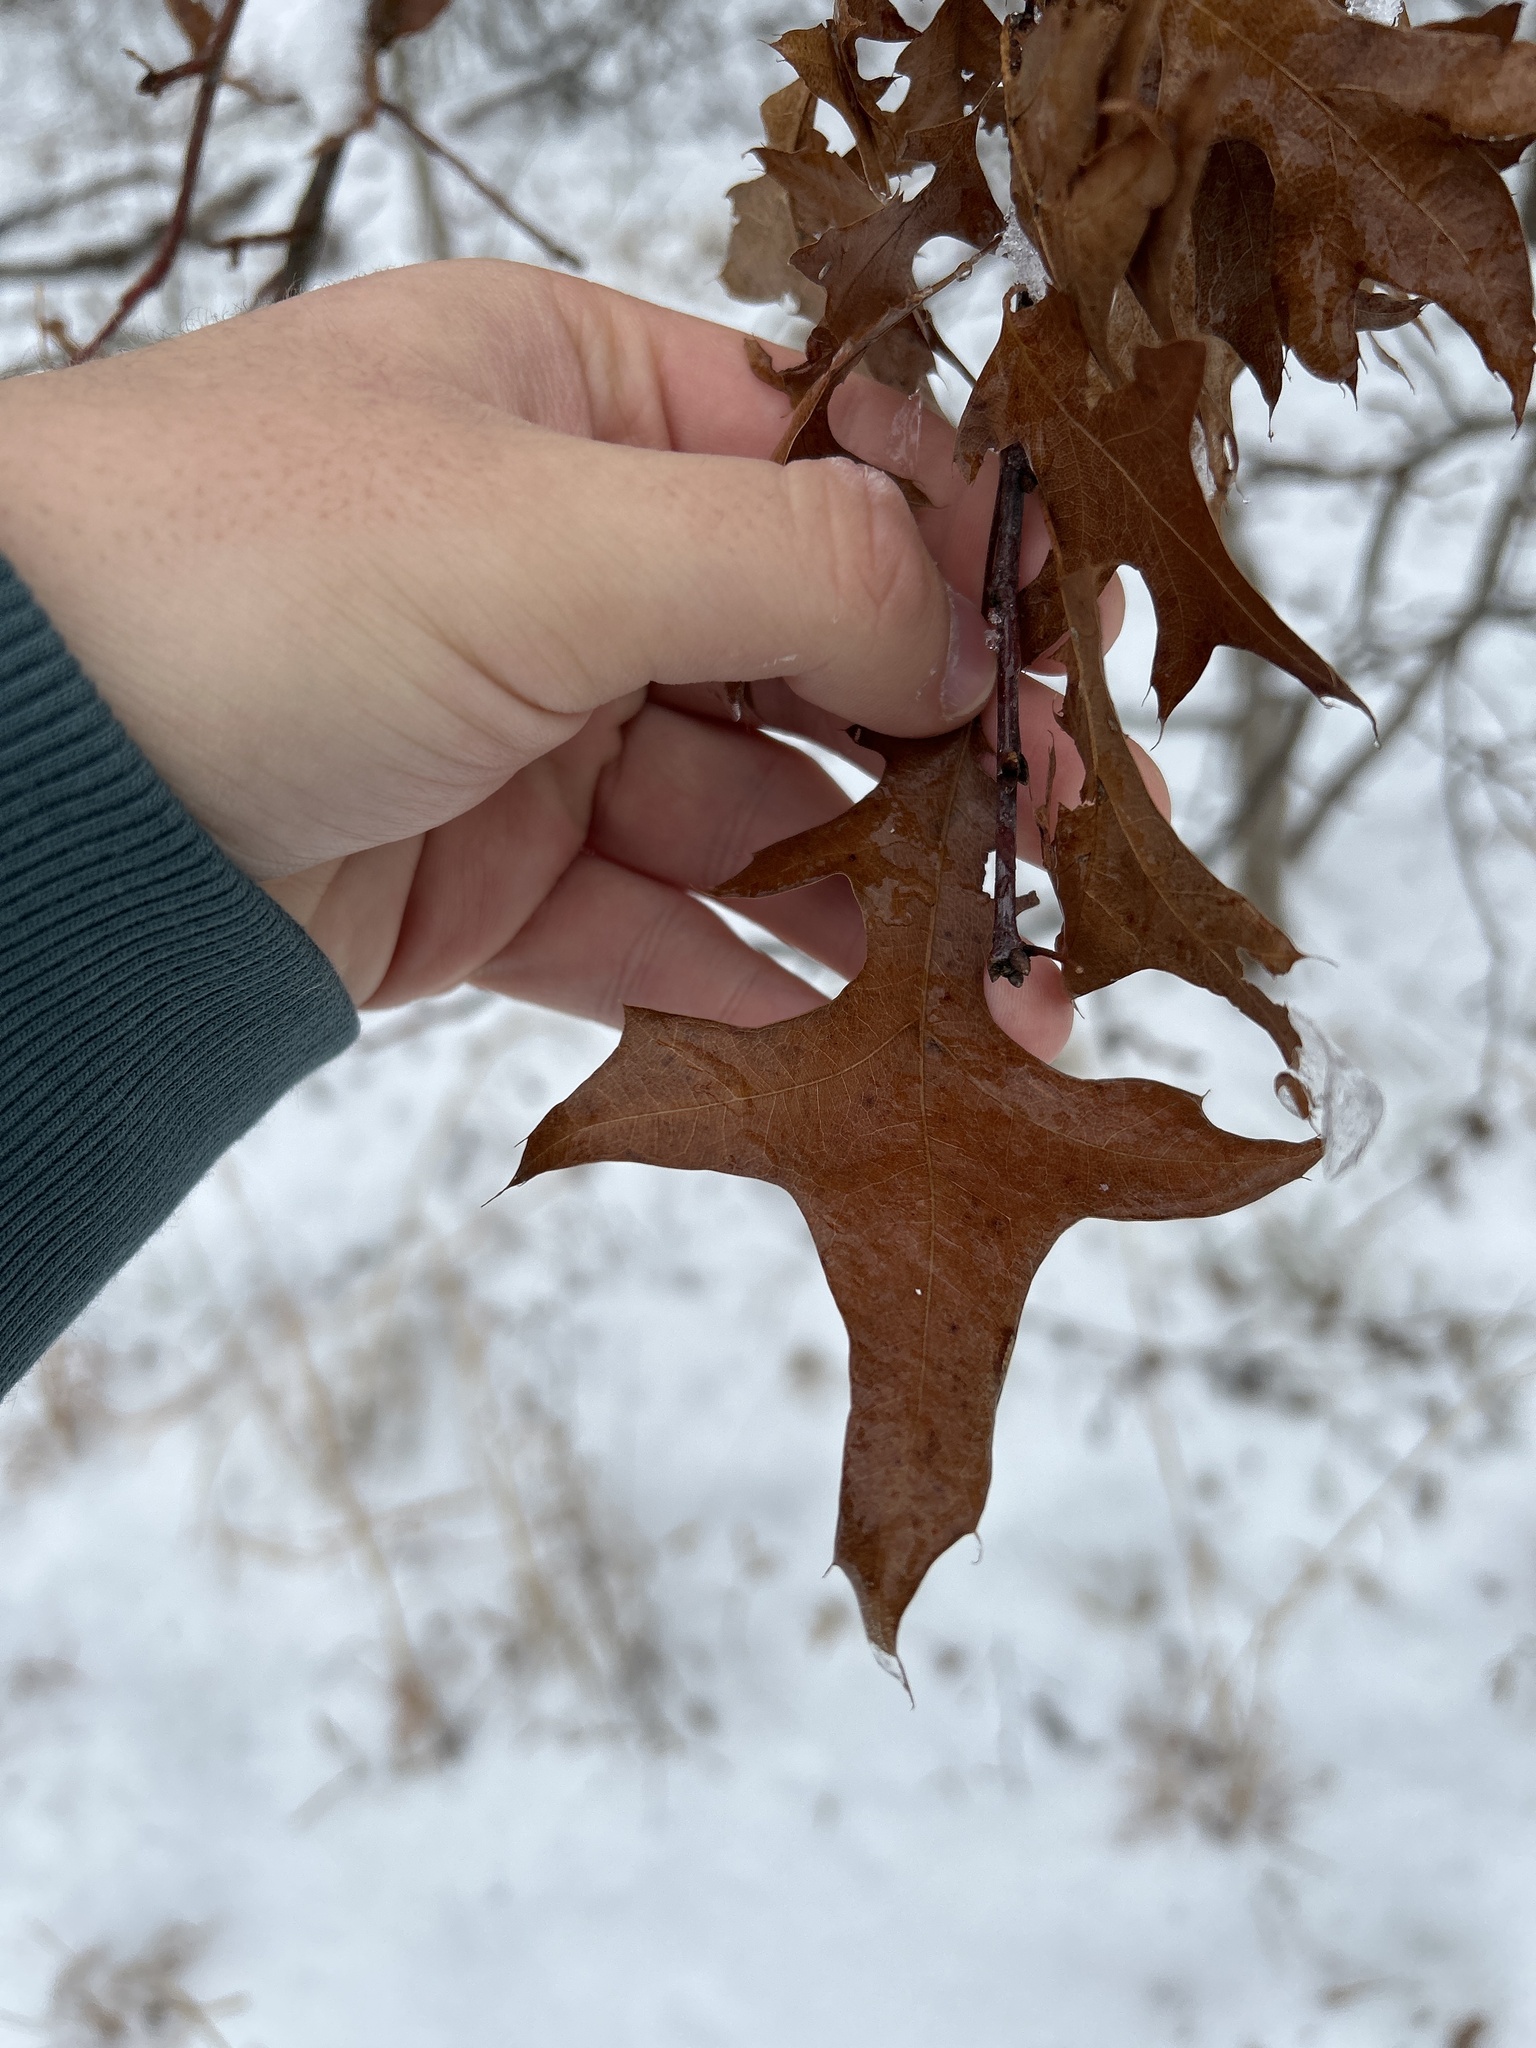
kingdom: Plantae
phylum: Tracheophyta
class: Magnoliopsida
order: Fagales
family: Fagaceae
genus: Quercus
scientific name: Quercus palustris
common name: Pin oak
